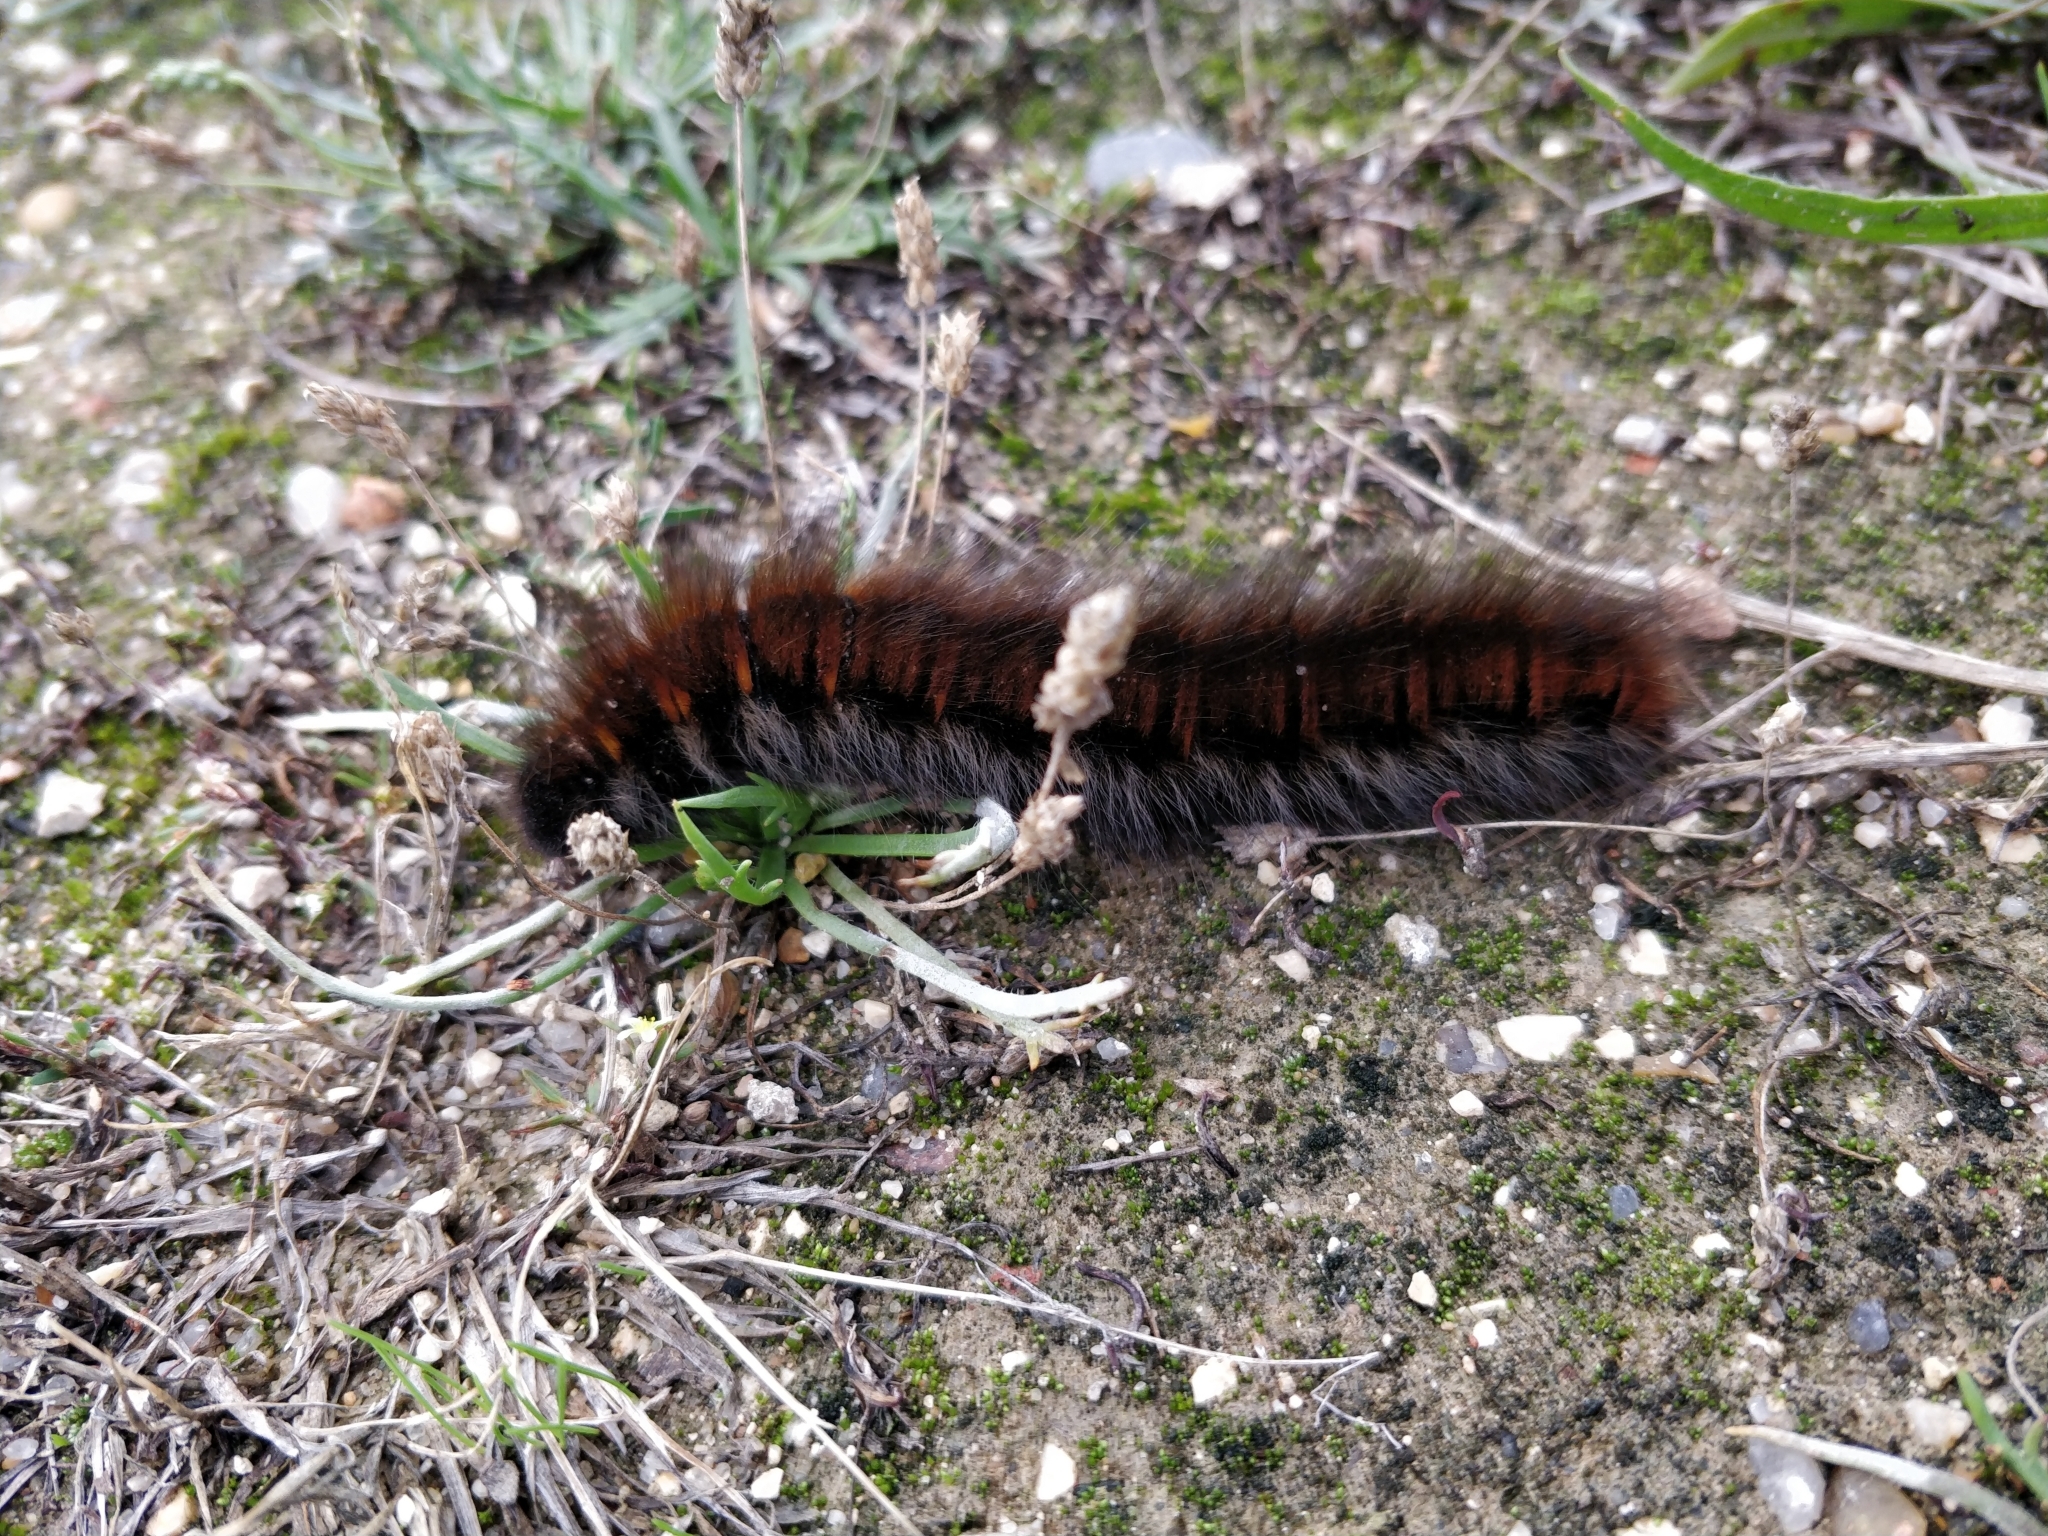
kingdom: Animalia
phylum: Arthropoda
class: Insecta
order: Lepidoptera
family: Lasiocampidae
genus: Macrothylacia
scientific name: Macrothylacia rubi
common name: Fox moth
